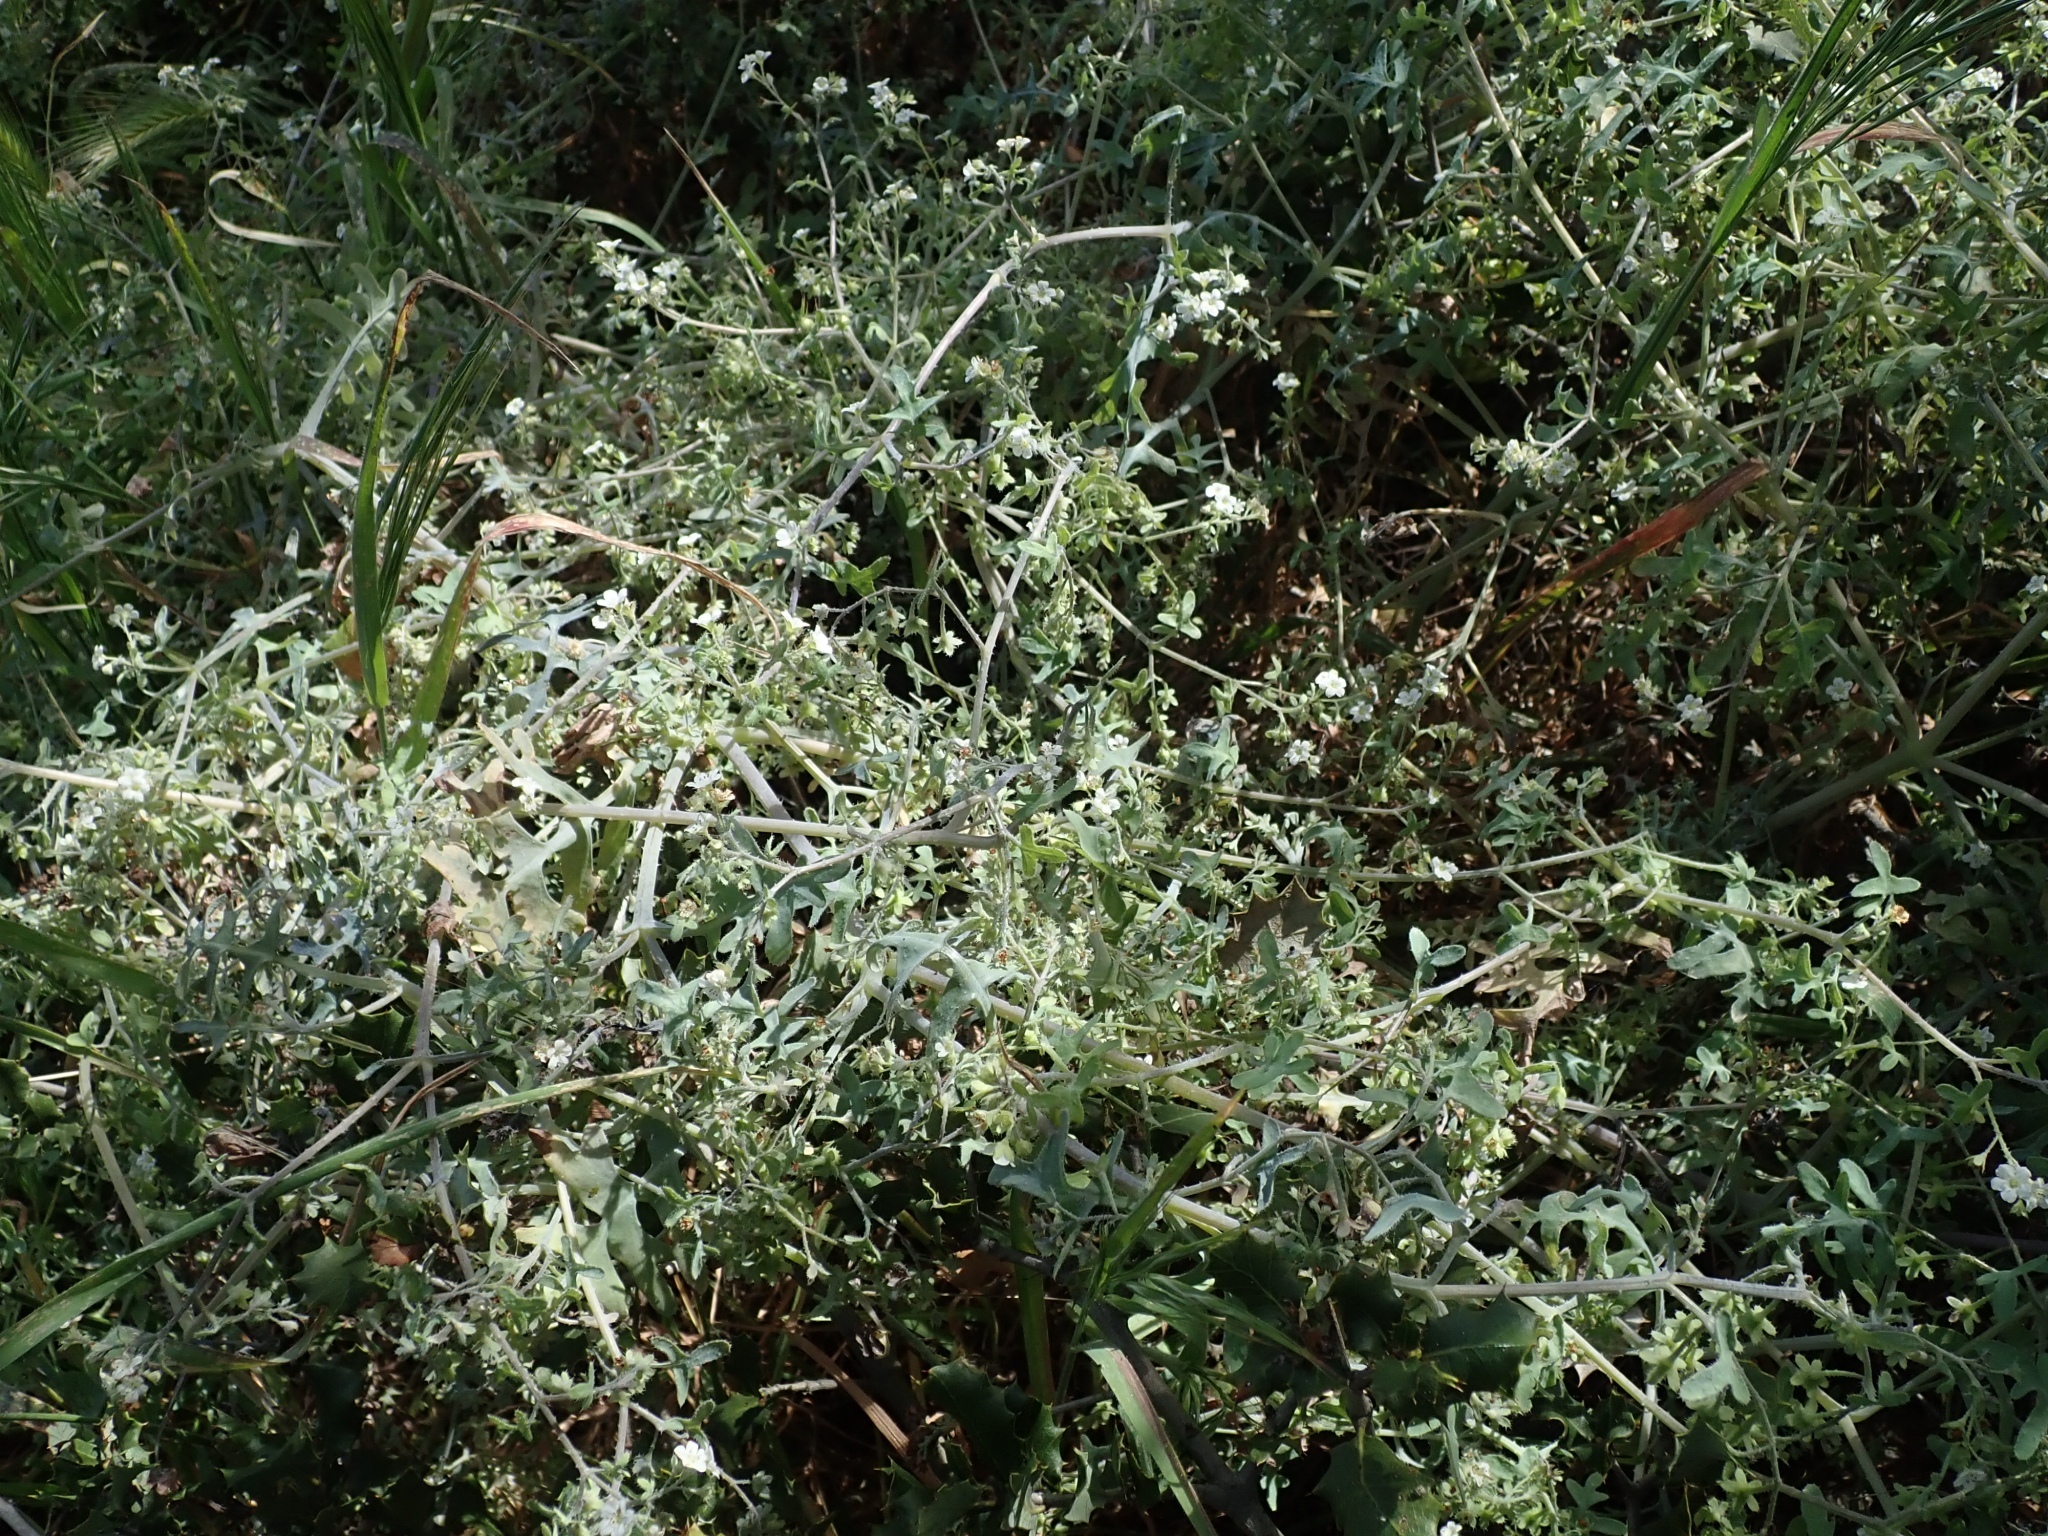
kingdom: Plantae
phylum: Tracheophyta
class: Magnoliopsida
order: Boraginales
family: Hydrophyllaceae
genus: Pholistoma
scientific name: Pholistoma membranaceum
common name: White fiesta-flower
